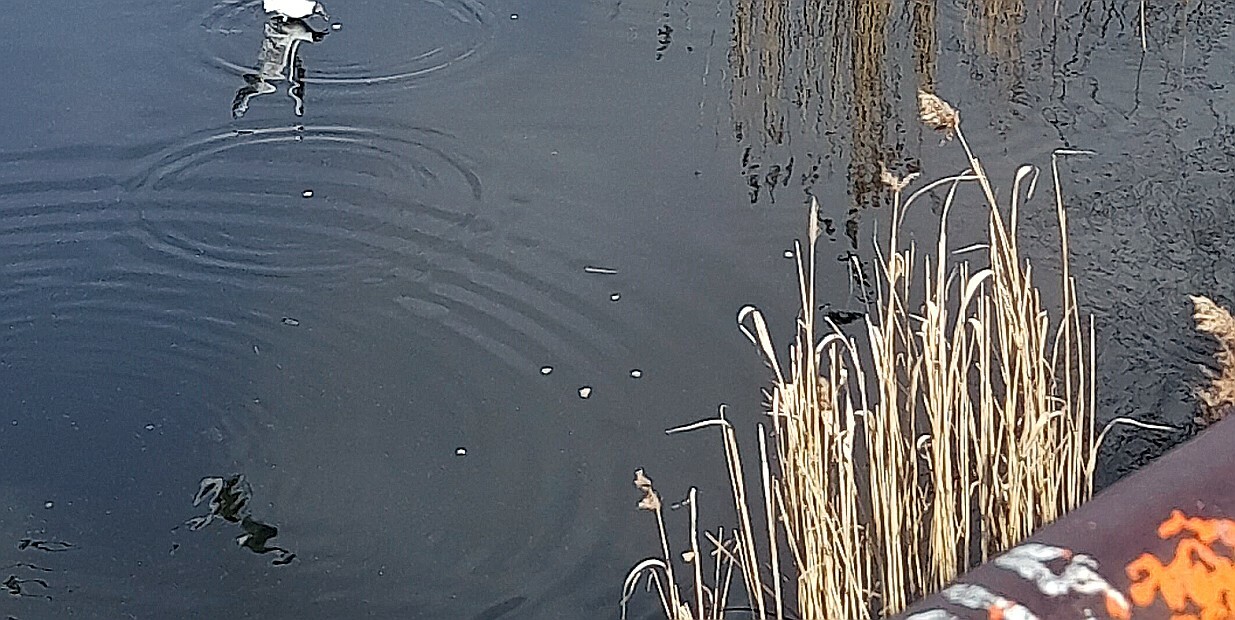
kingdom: Plantae
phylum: Tracheophyta
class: Liliopsida
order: Poales
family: Poaceae
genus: Phragmites
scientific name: Phragmites australis
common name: Common reed
